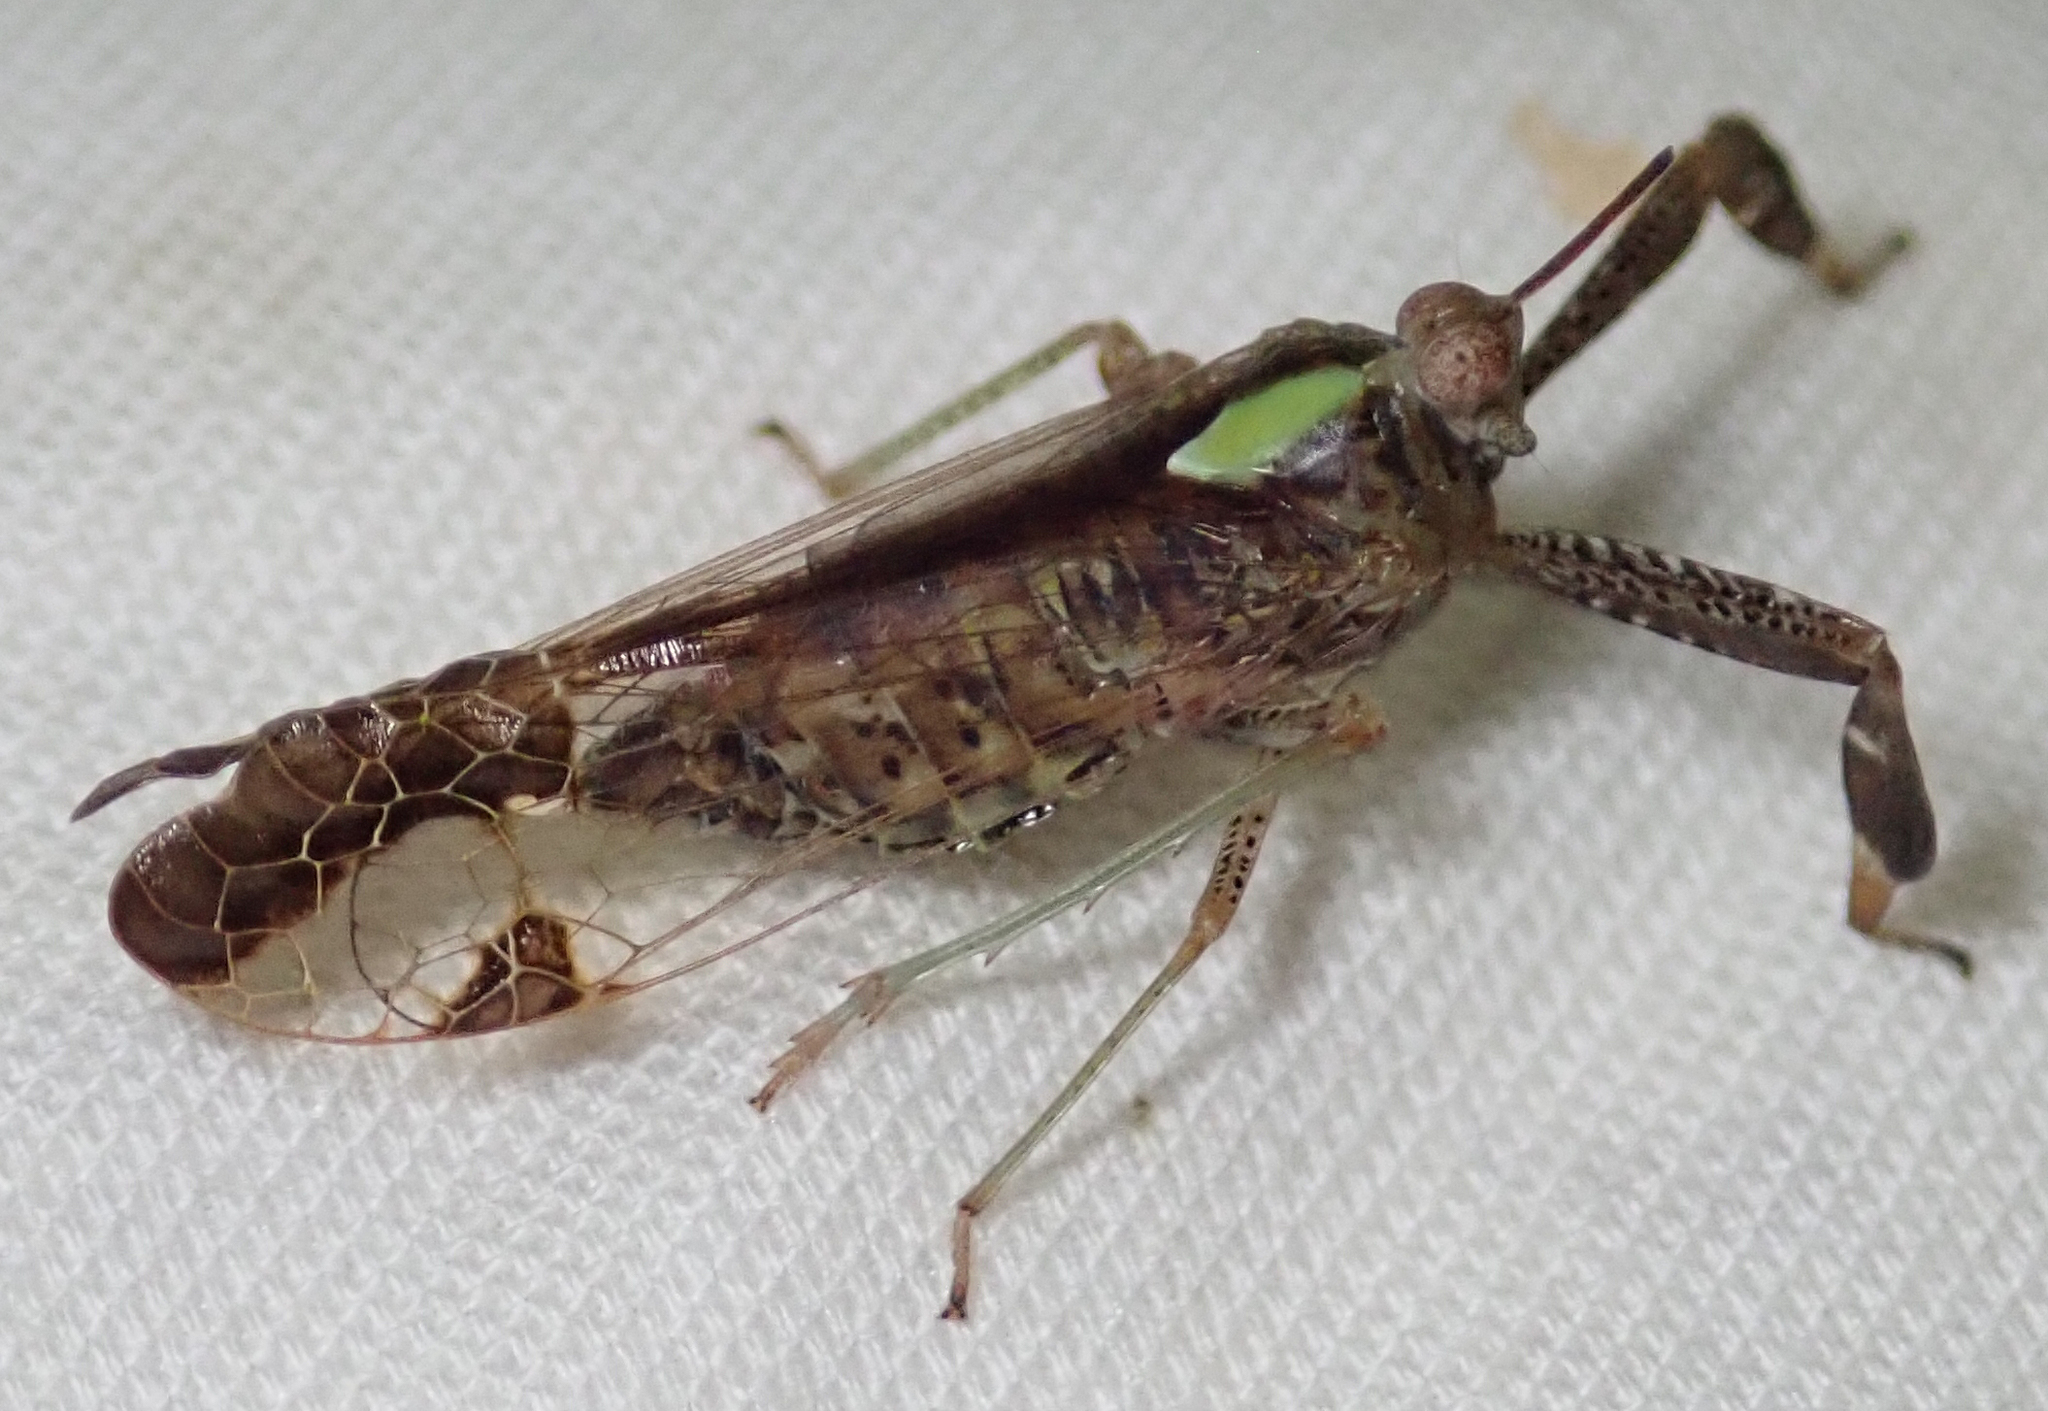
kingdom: Animalia
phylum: Arthropoda
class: Insecta
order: Hemiptera
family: Dictyopharidae
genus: Raphiophora
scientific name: Raphiophora intricata
